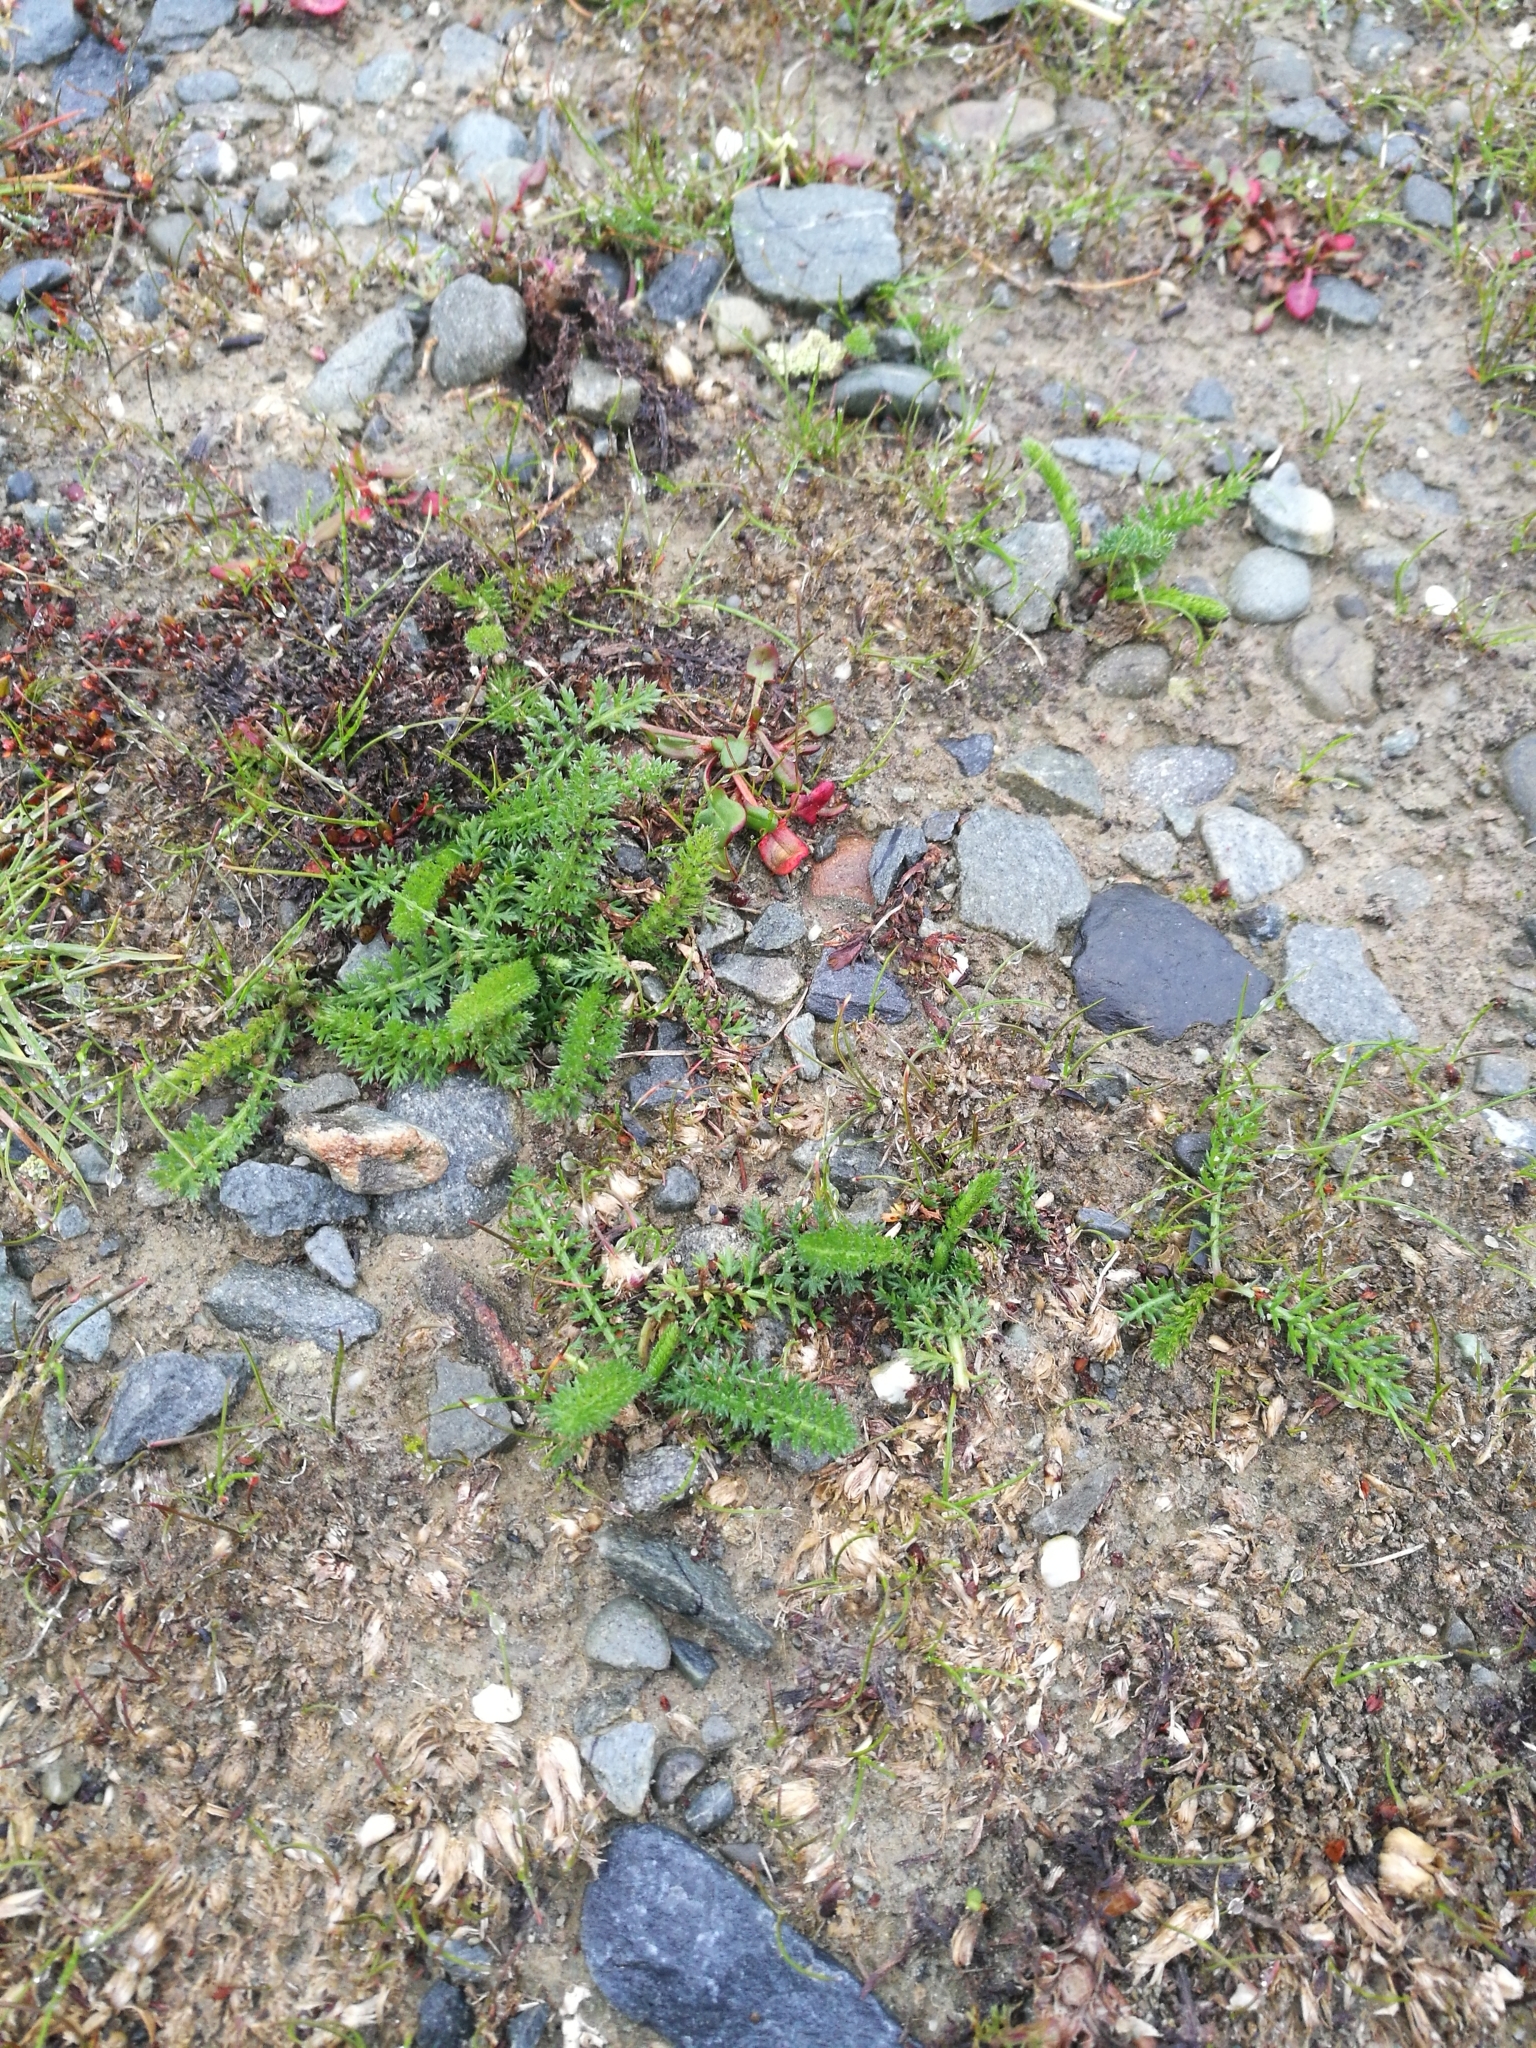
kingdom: Plantae
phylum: Tracheophyta
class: Magnoliopsida
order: Asterales
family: Asteraceae
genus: Achillea
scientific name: Achillea millefolium
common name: Yarrow
